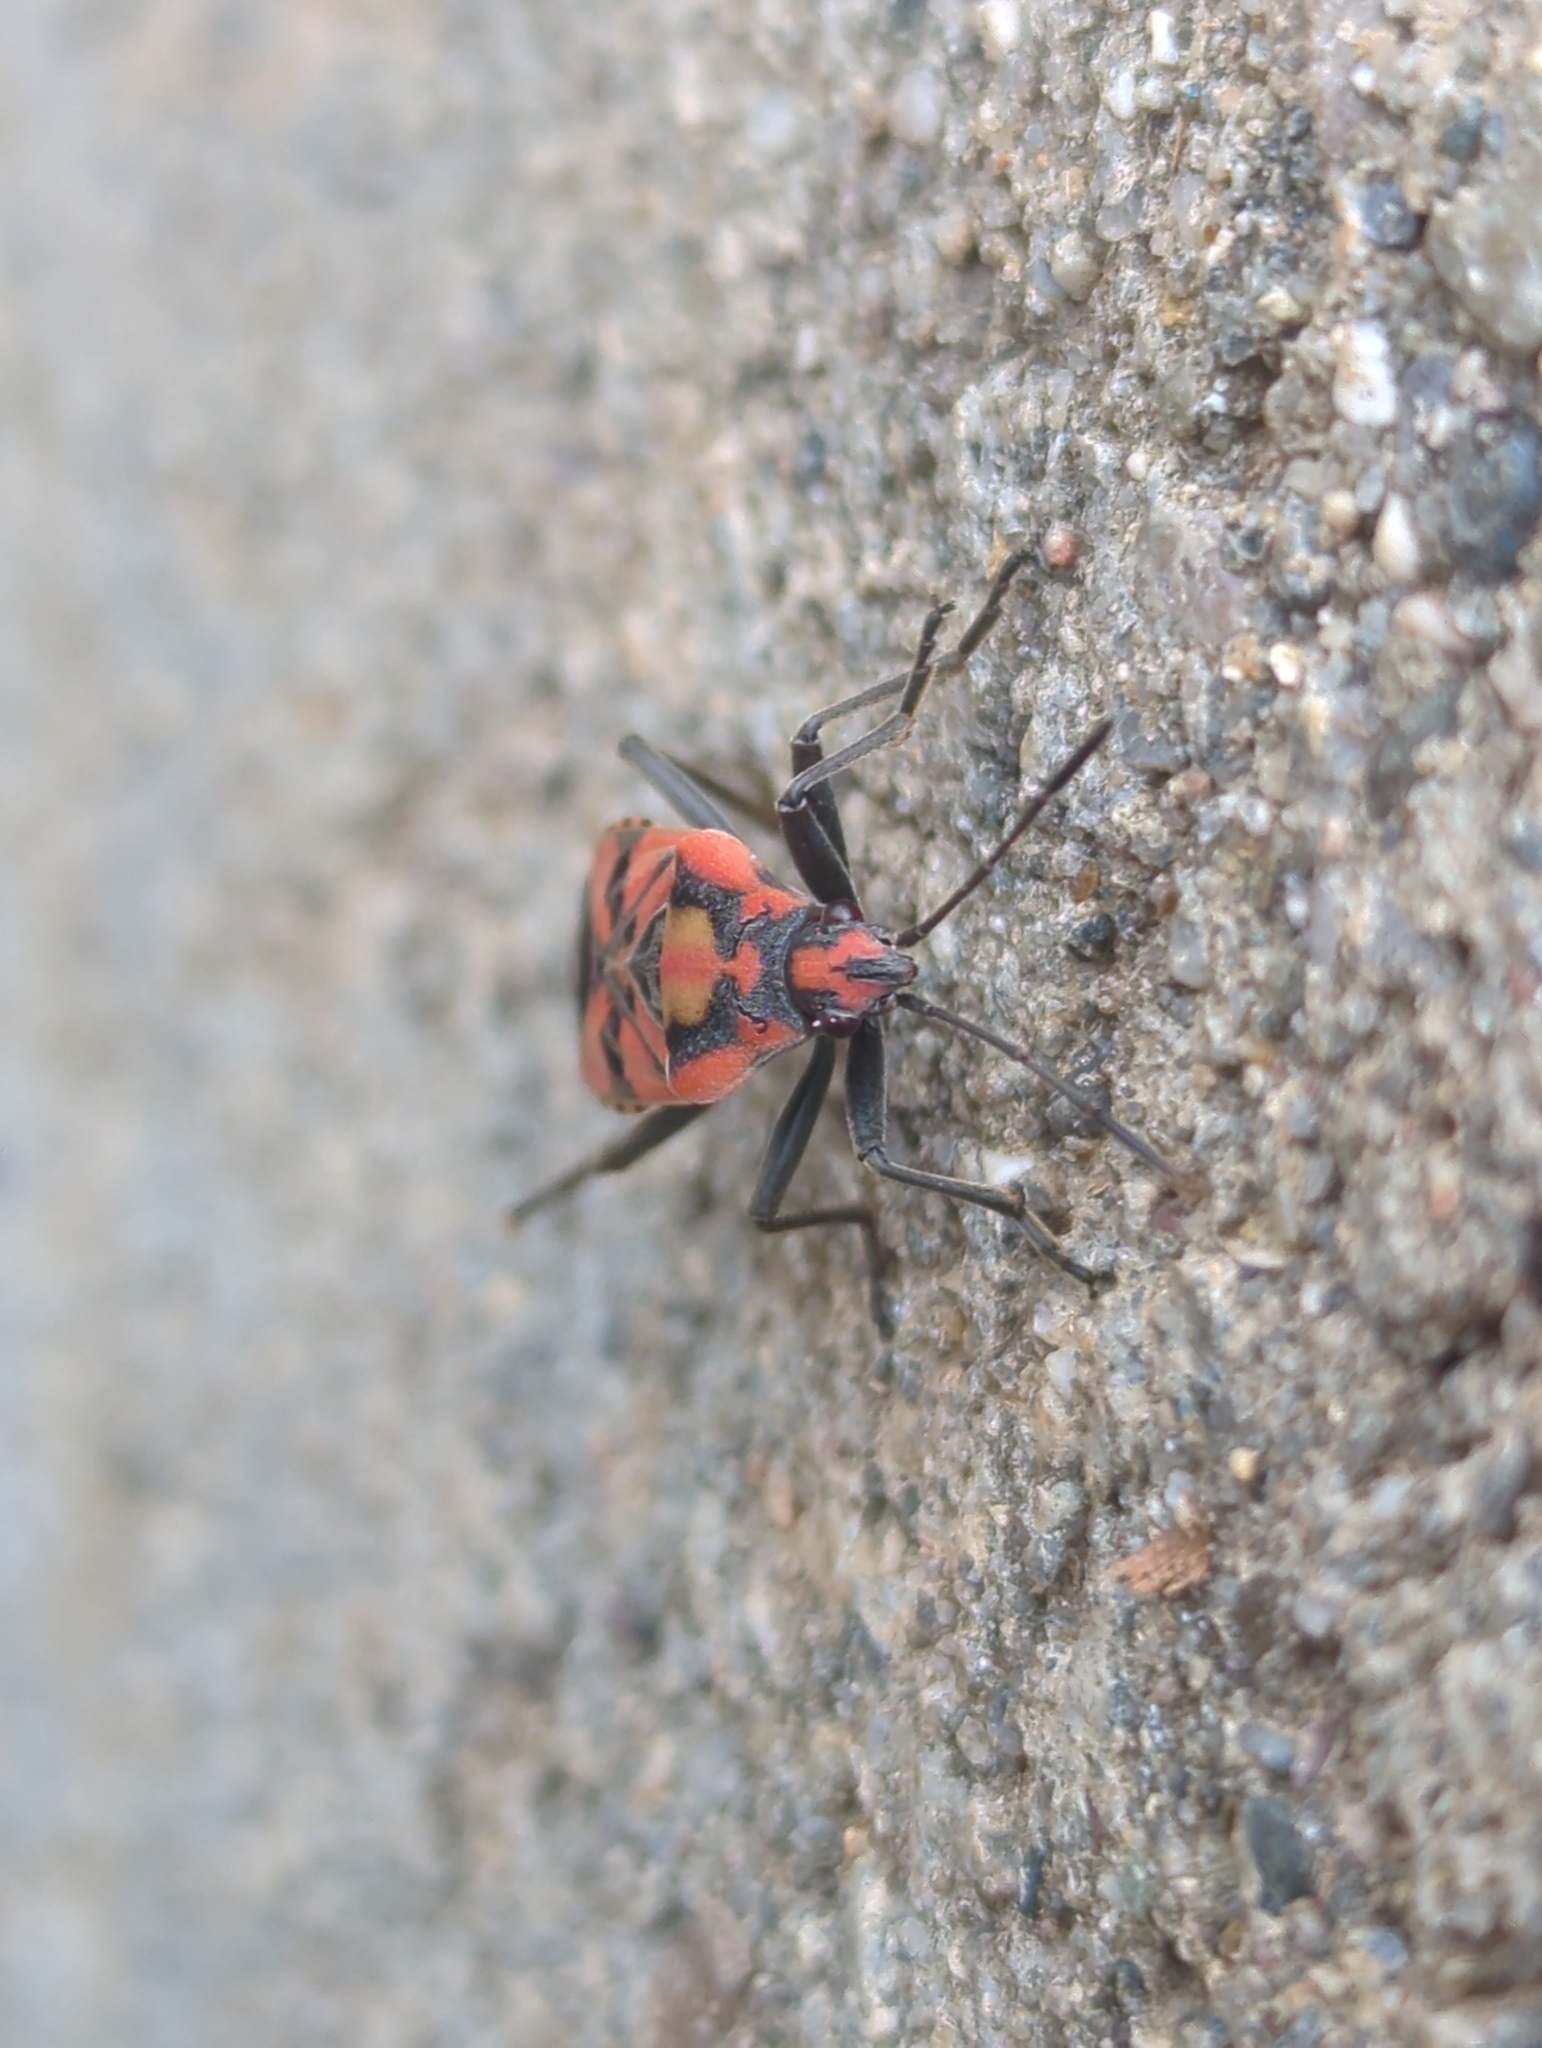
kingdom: Animalia
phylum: Arthropoda
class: Insecta
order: Hemiptera
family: Lygaeidae
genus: Spilostethus
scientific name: Spilostethus pandurus
